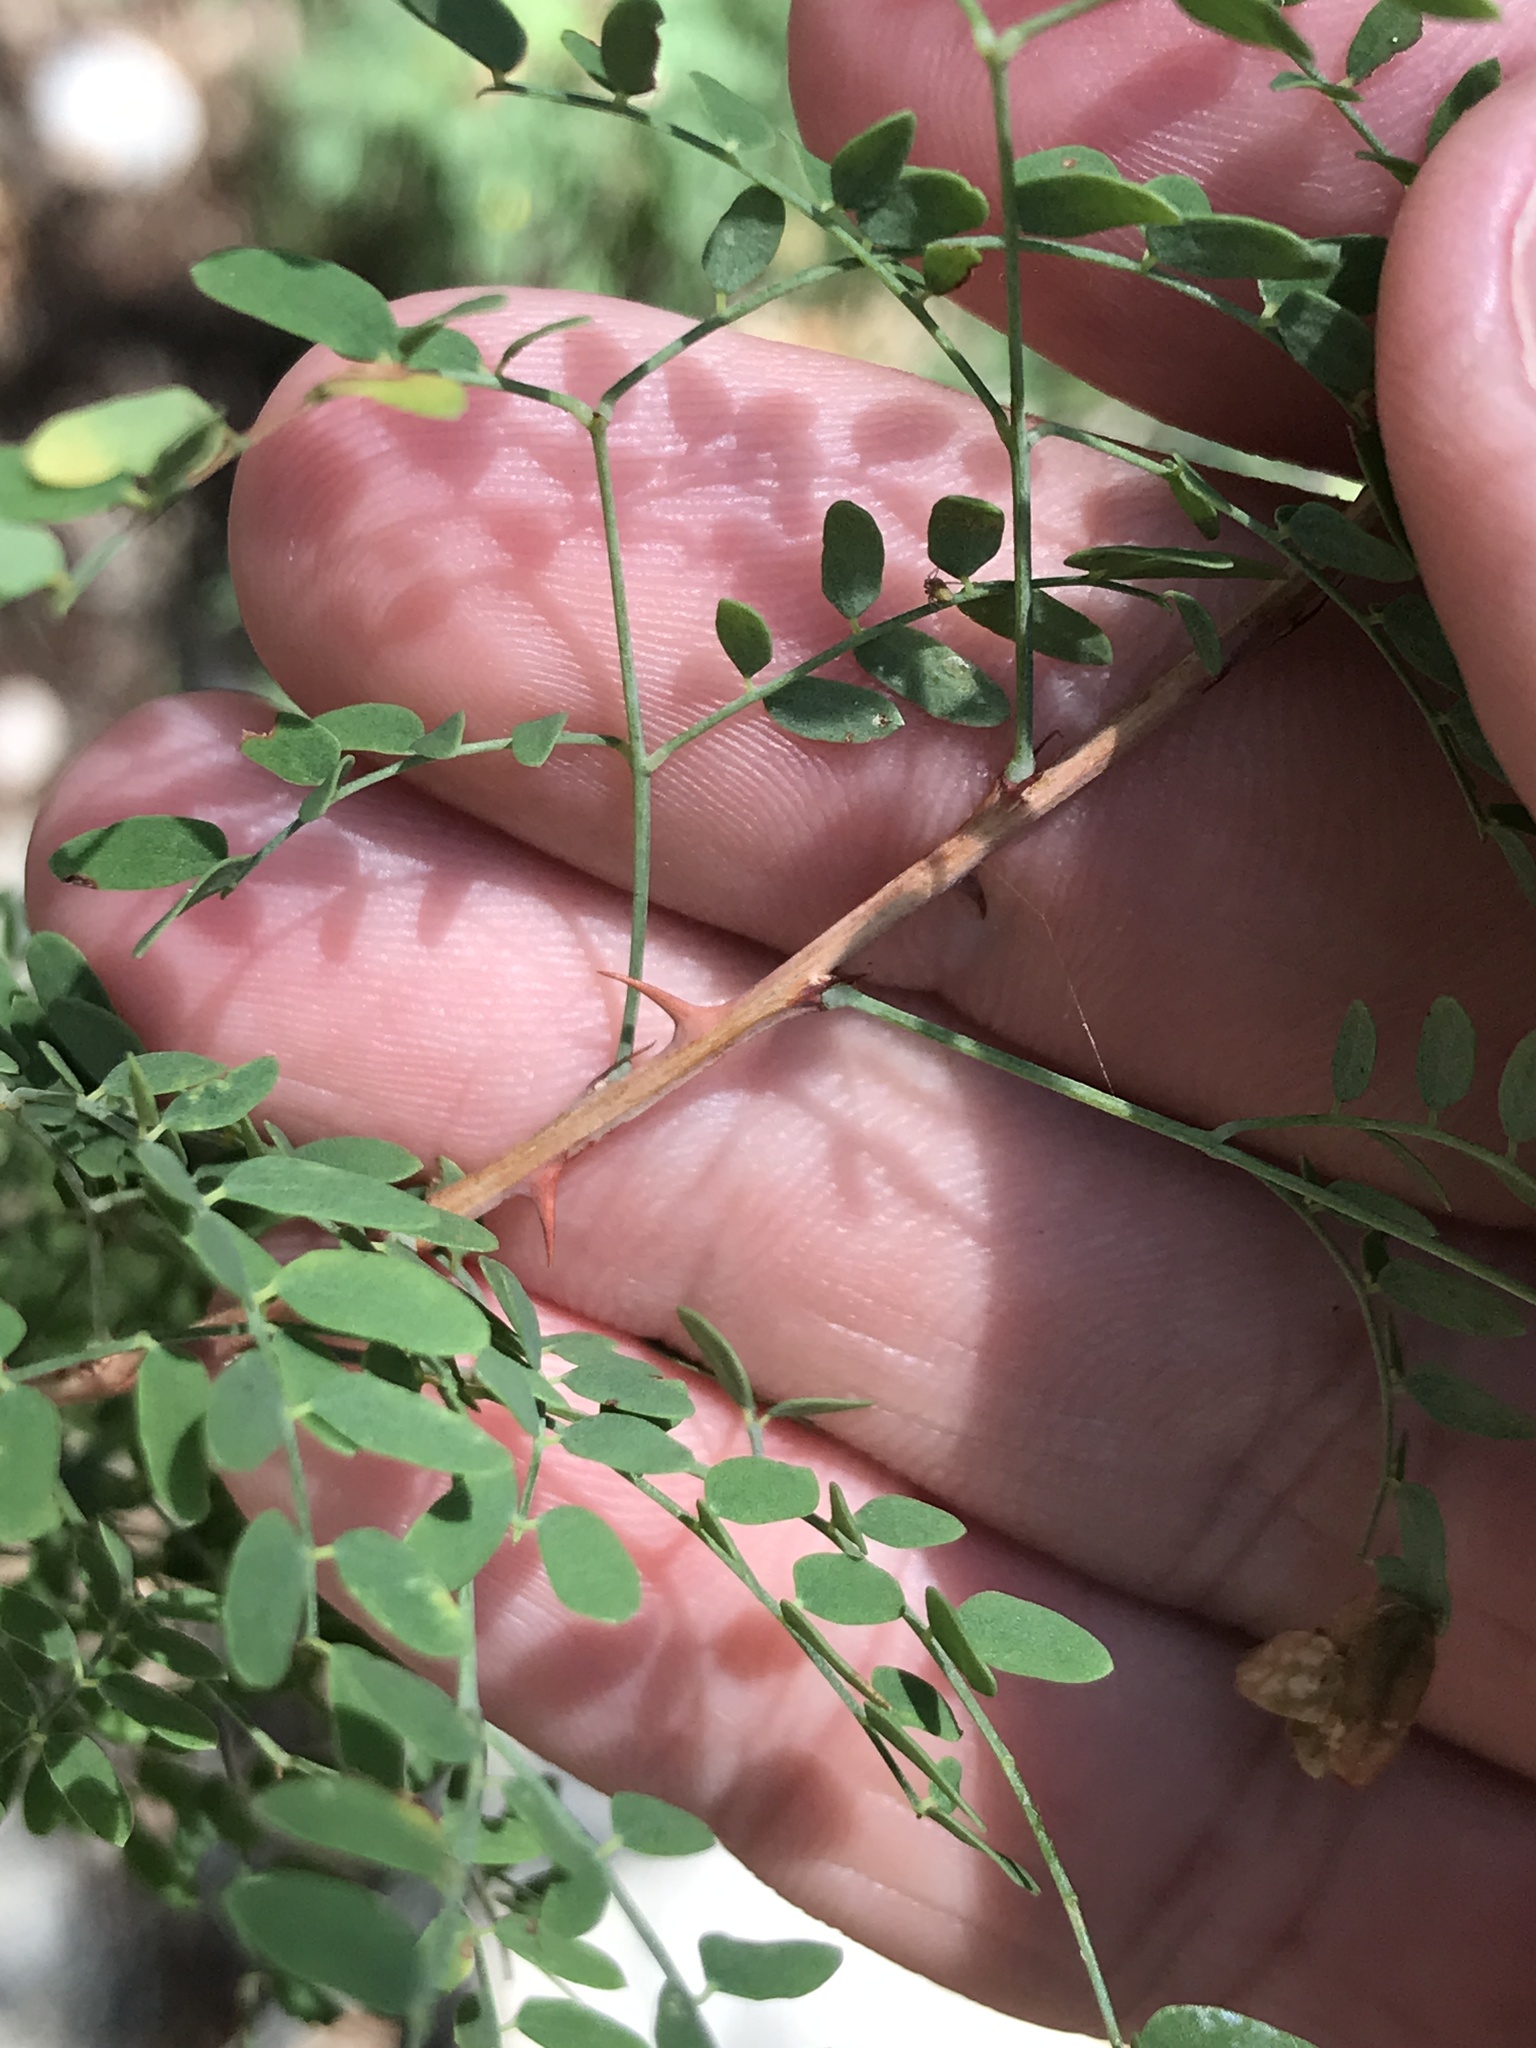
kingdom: Plantae
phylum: Tracheophyta
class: Magnoliopsida
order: Fabales
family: Fabaceae
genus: Mimosa
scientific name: Mimosa borealis
